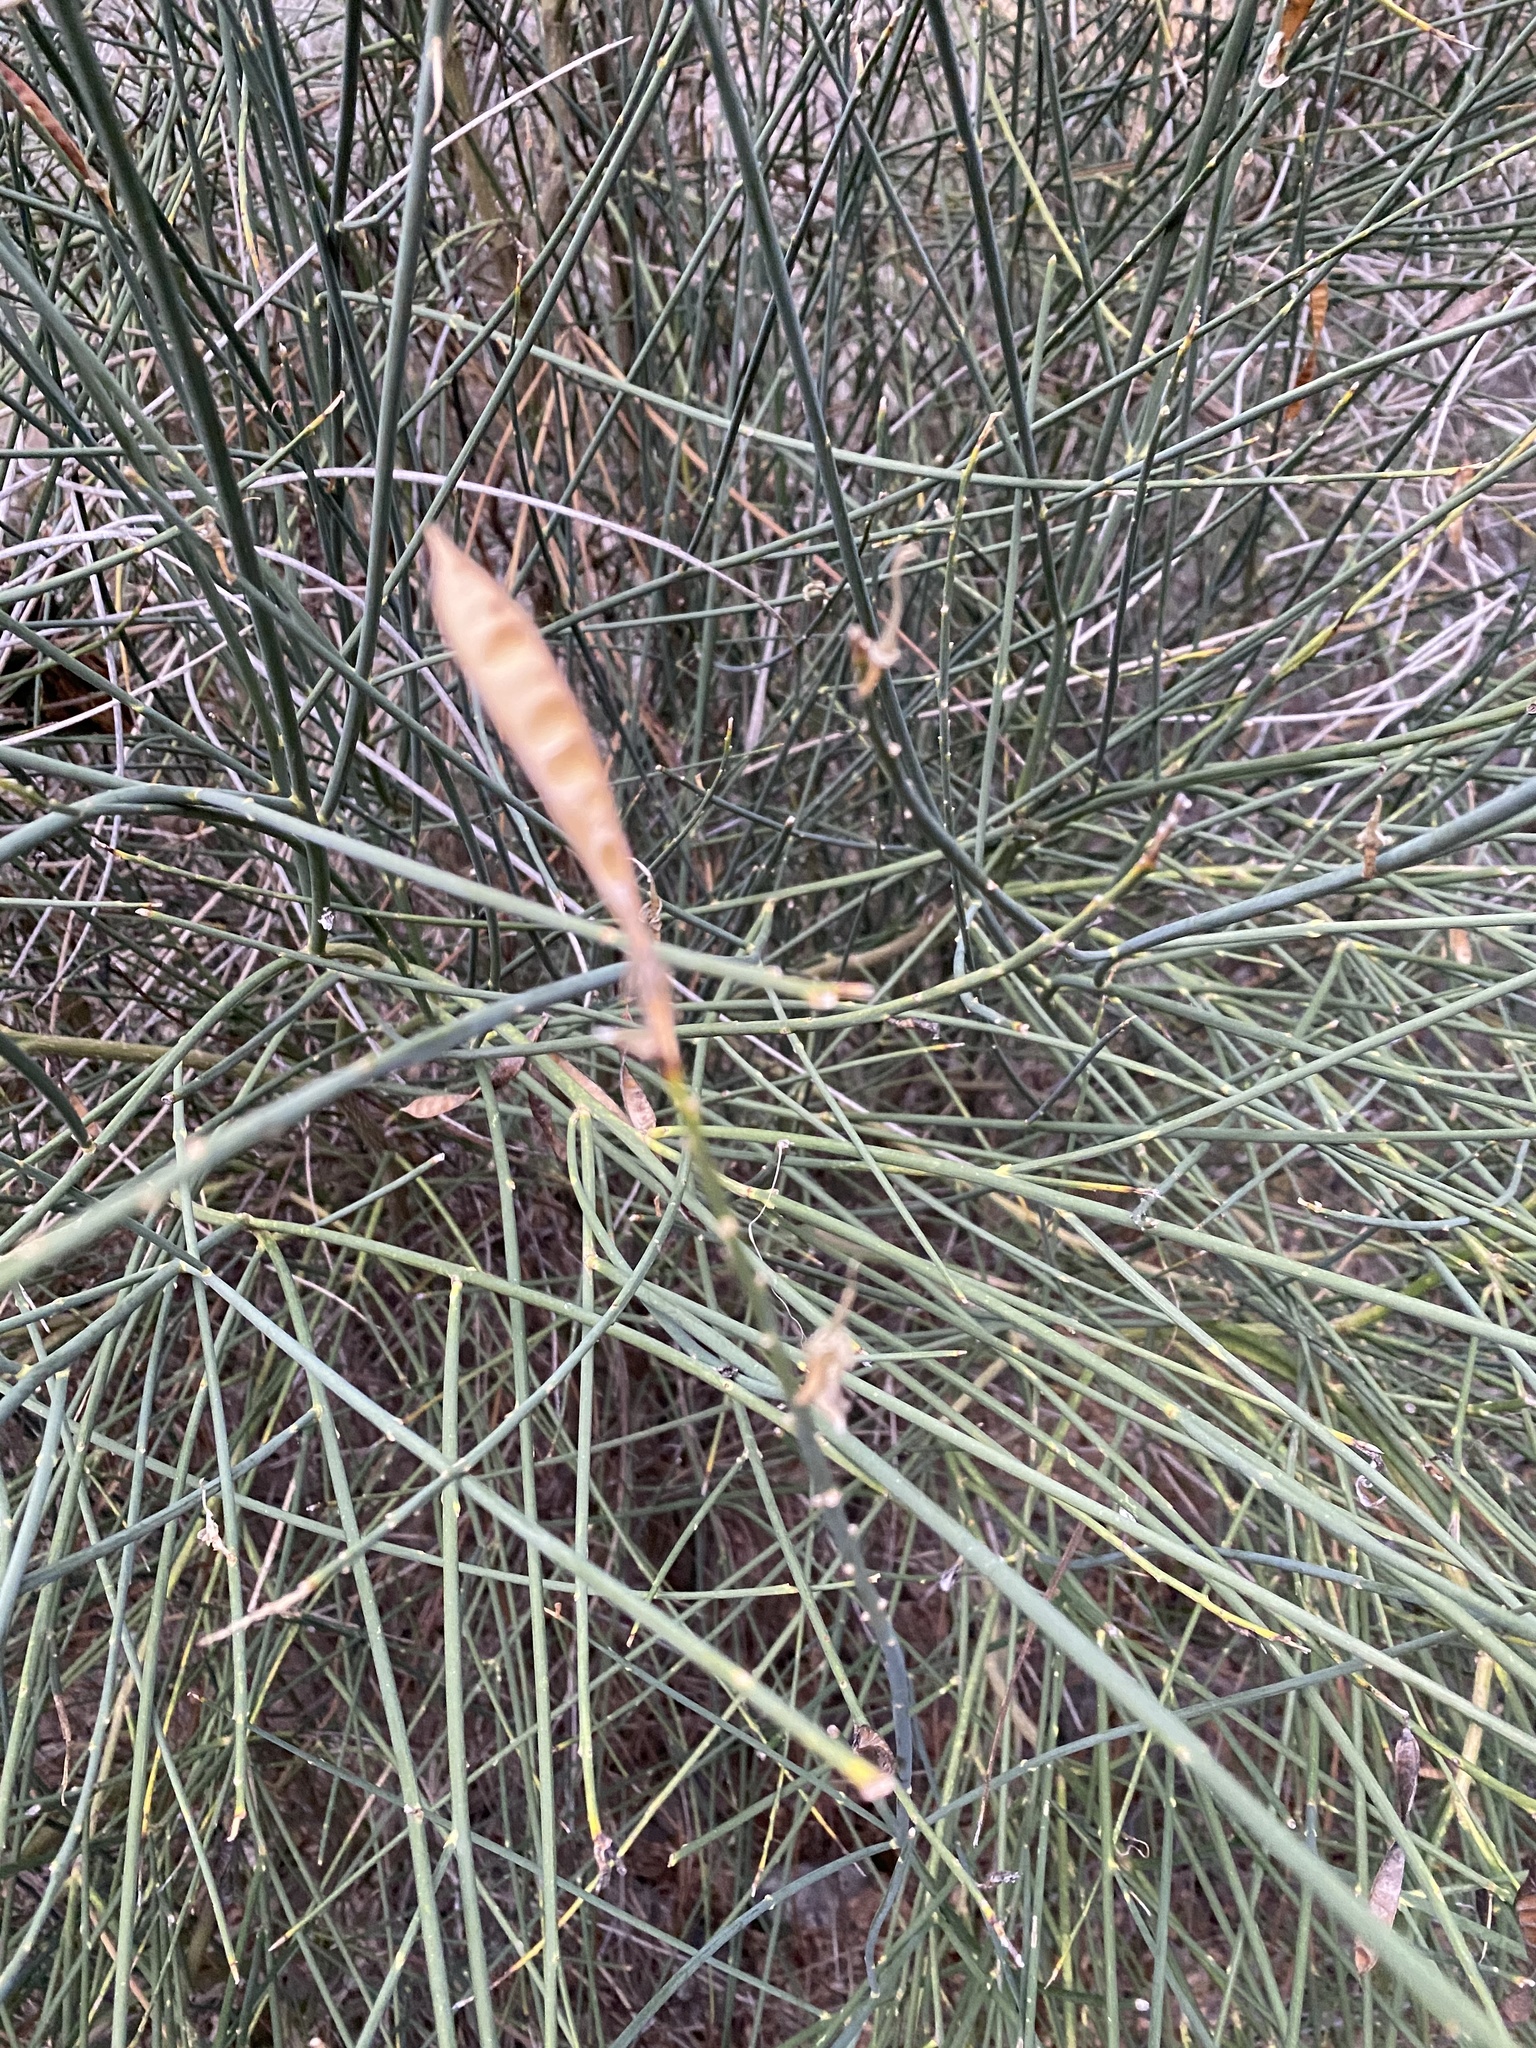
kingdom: Plantae
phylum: Tracheophyta
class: Magnoliopsida
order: Fabales
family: Fabaceae
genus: Spartium
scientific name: Spartium junceum
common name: Spanish broom
